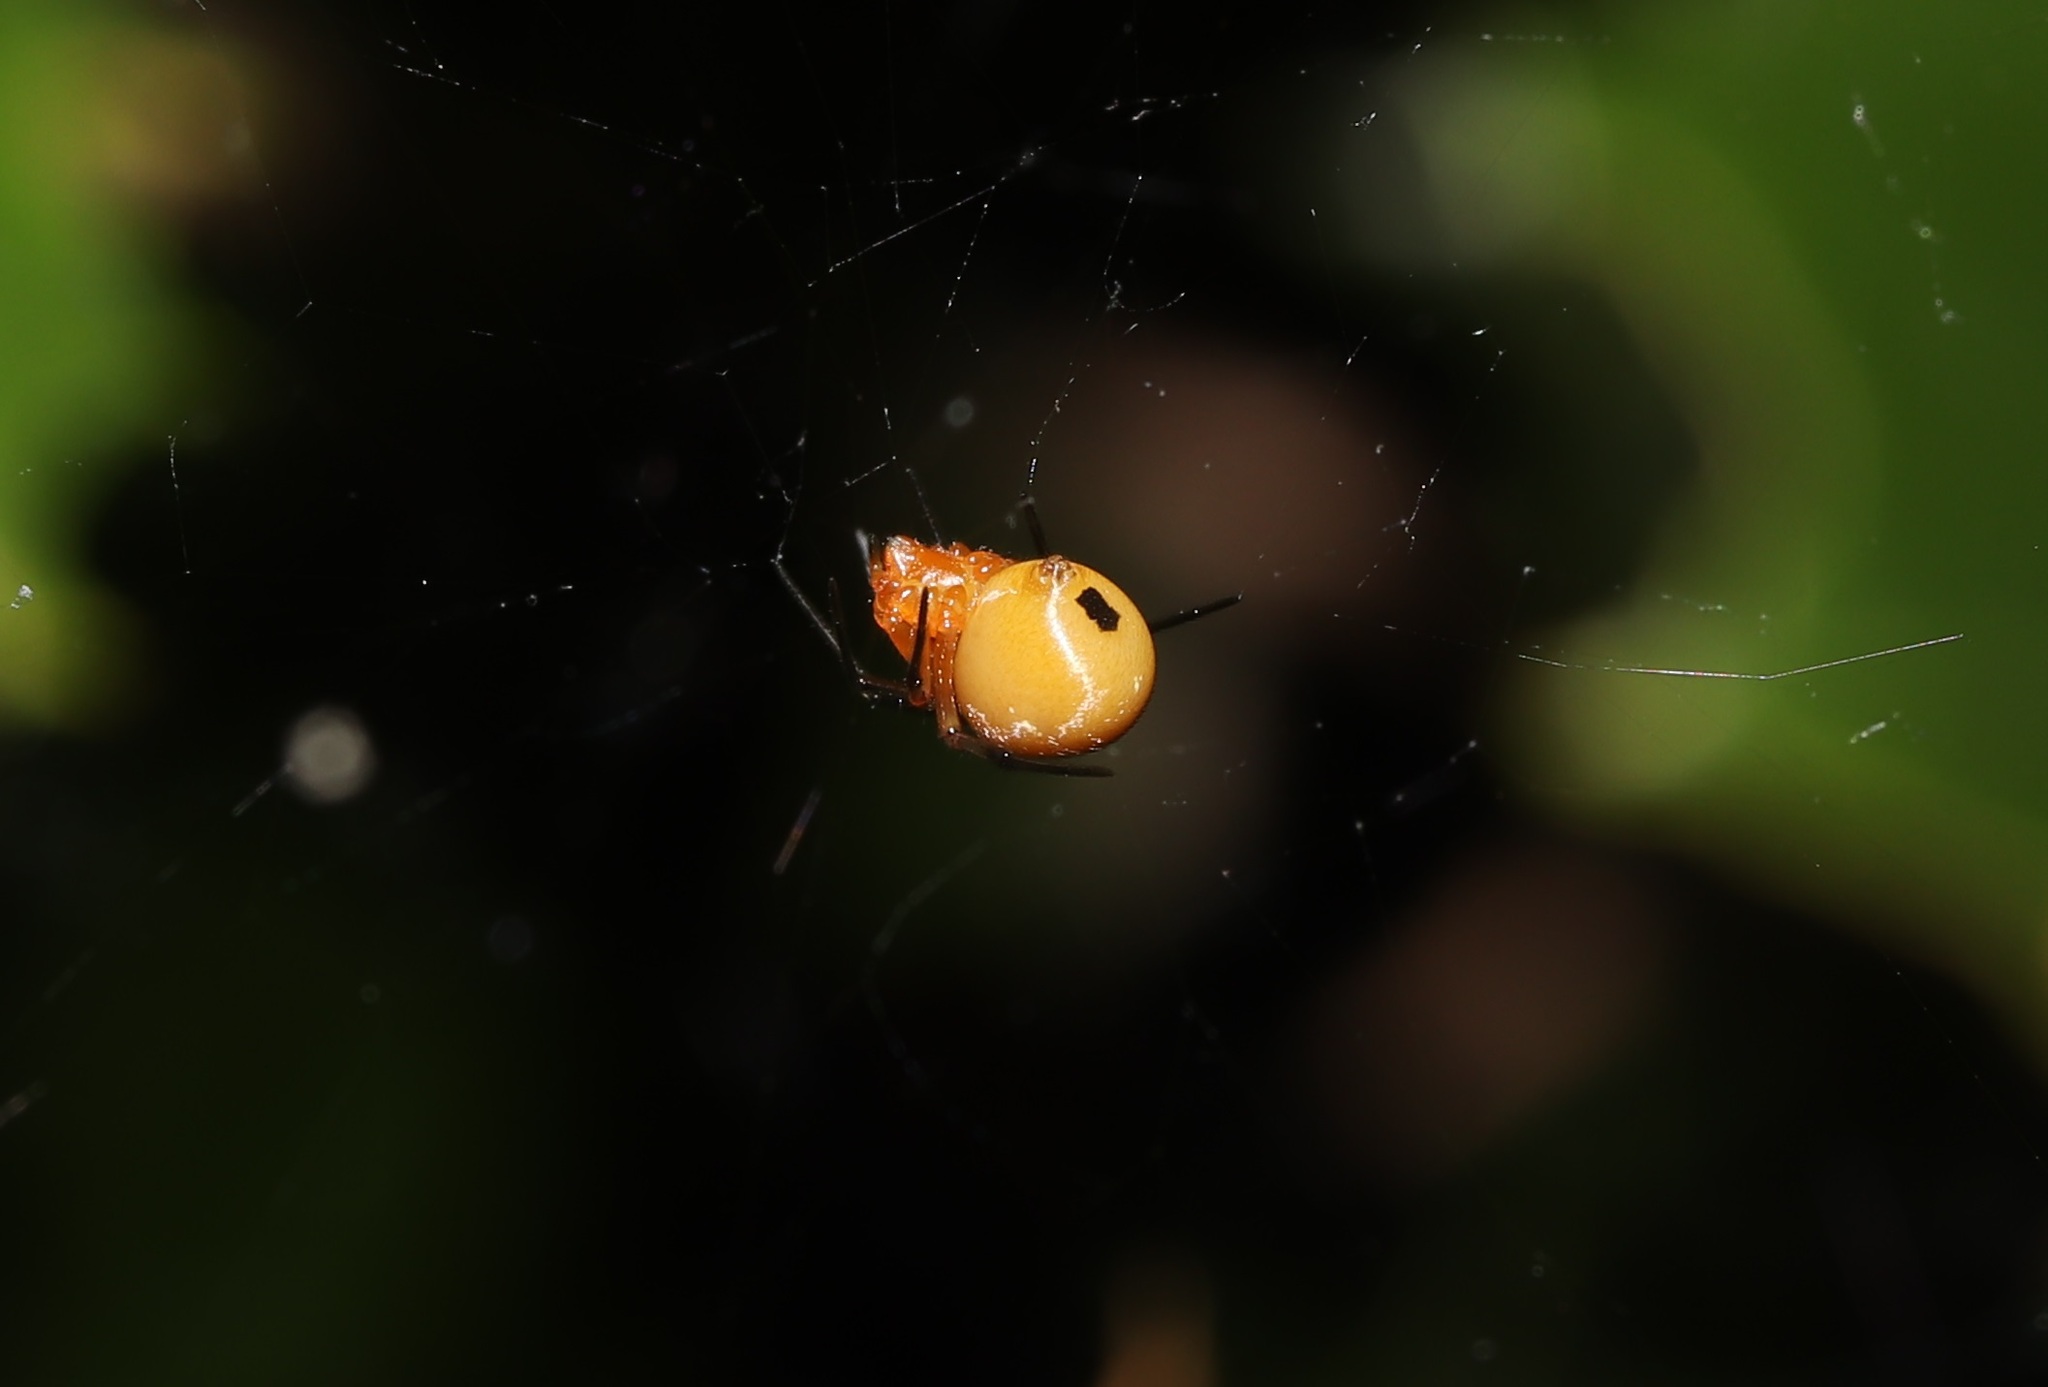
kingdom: Animalia
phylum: Arthropoda
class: Arachnida
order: Araneae
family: Theridiidae
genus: Nihonhimea
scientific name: Nihonhimea japonica
